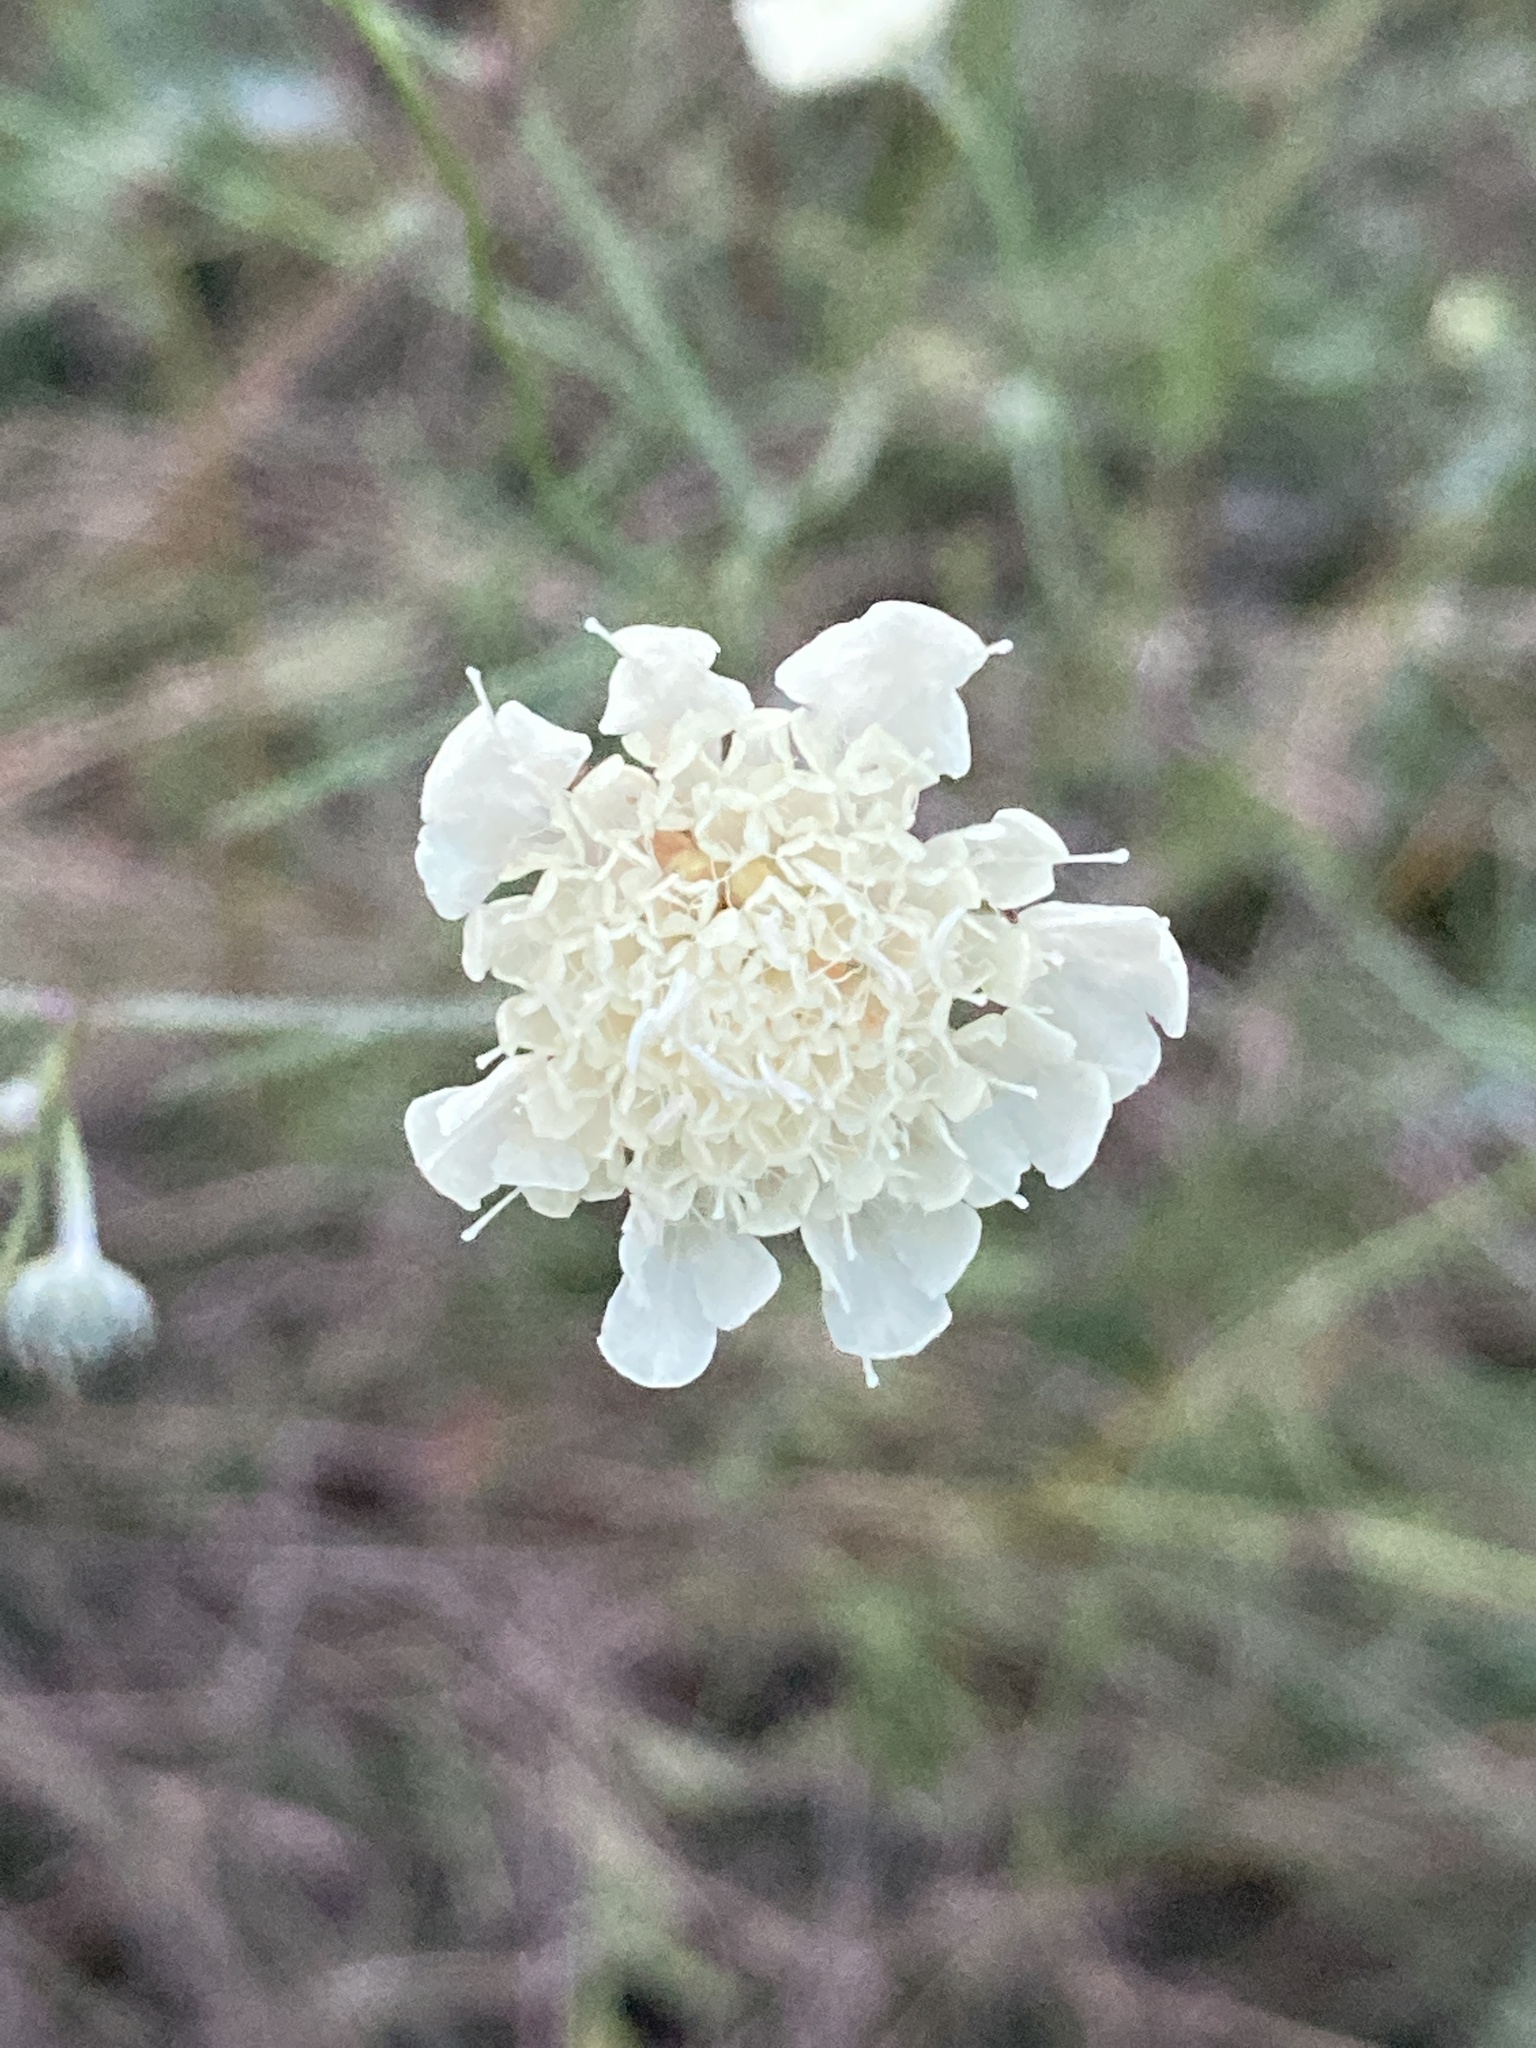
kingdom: Plantae
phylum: Tracheophyta
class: Magnoliopsida
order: Dipsacales
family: Caprifoliaceae
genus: Scabiosa
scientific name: Scabiosa ochroleuca
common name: Cream pincushions
